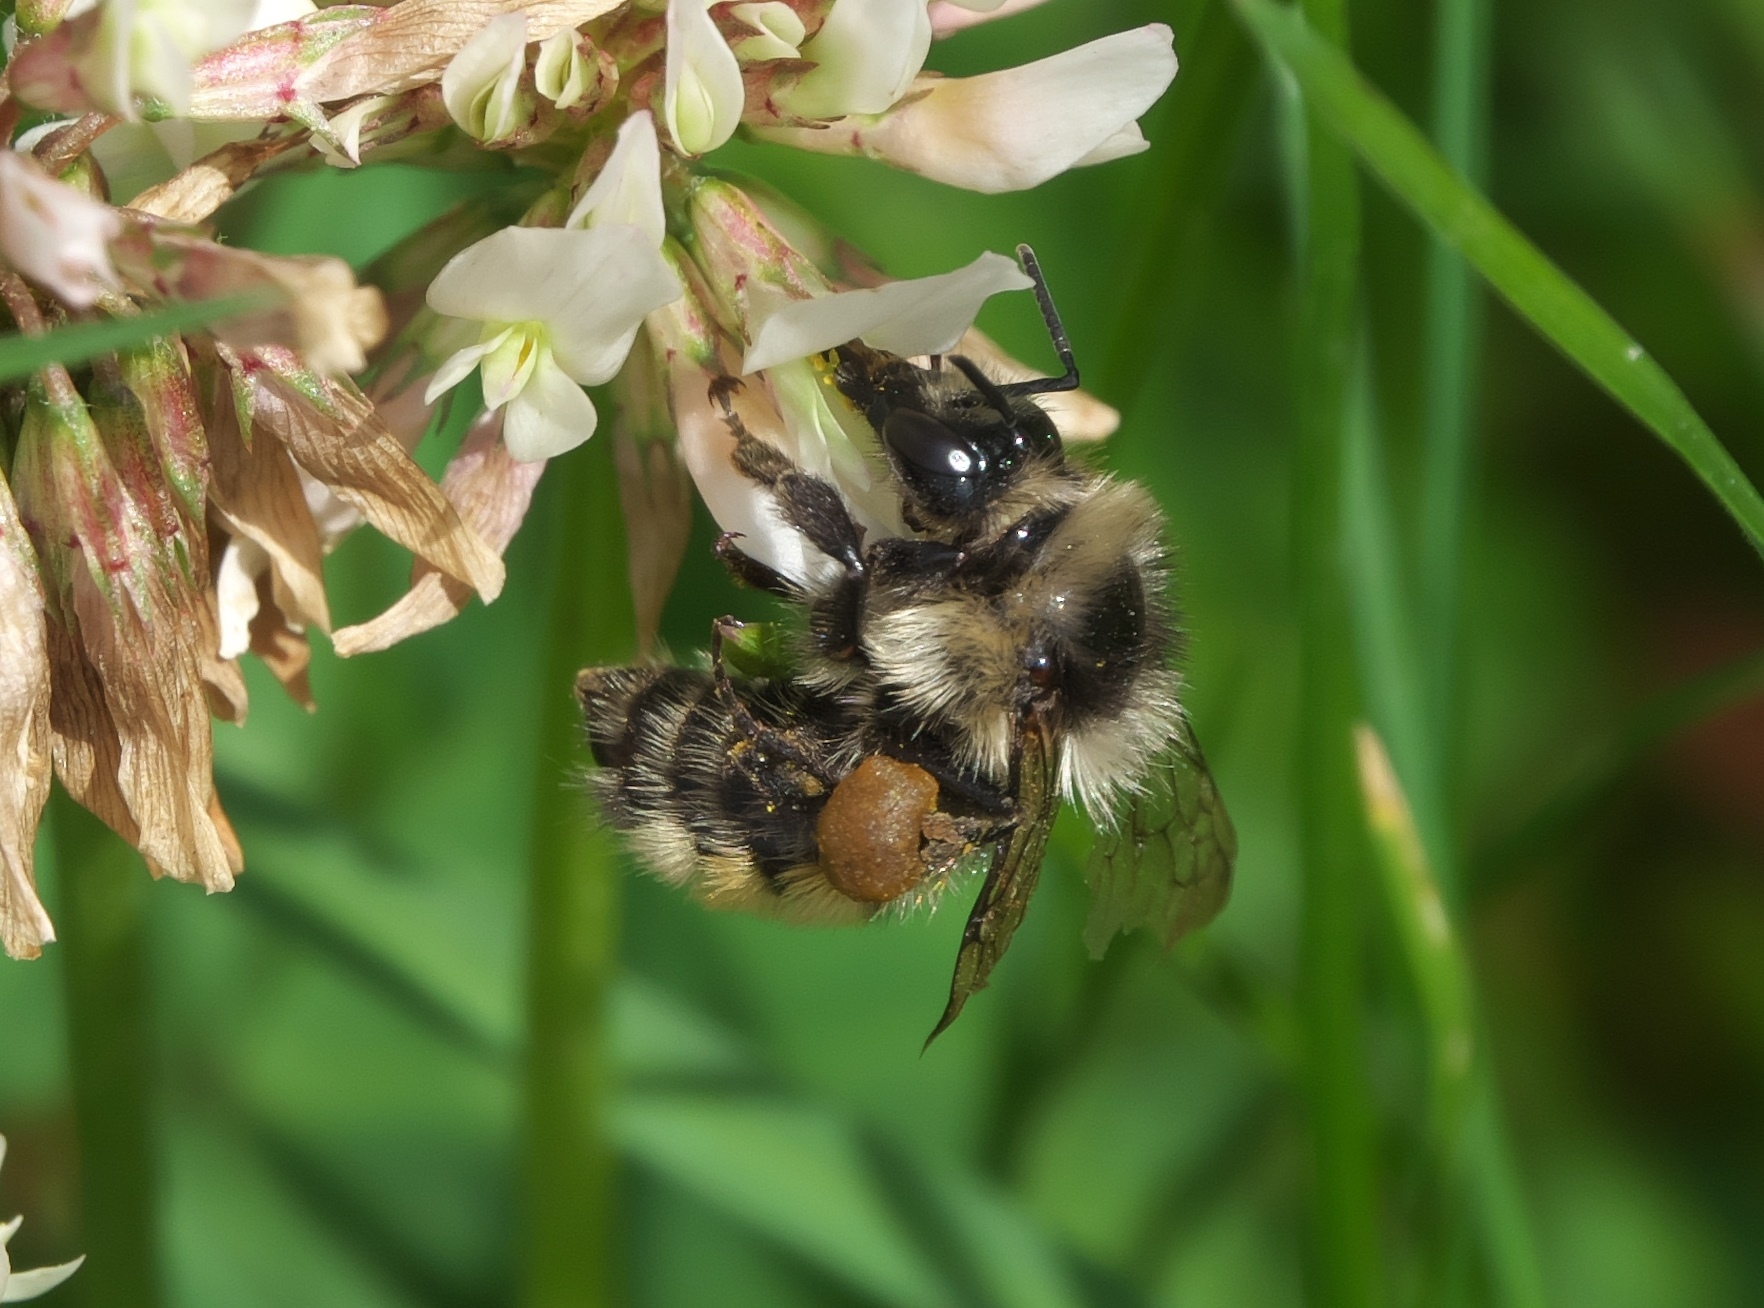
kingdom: Animalia
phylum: Arthropoda
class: Insecta
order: Hymenoptera
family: Apidae
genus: Bombus
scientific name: Bombus sylvicola
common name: Forest bumble bee
